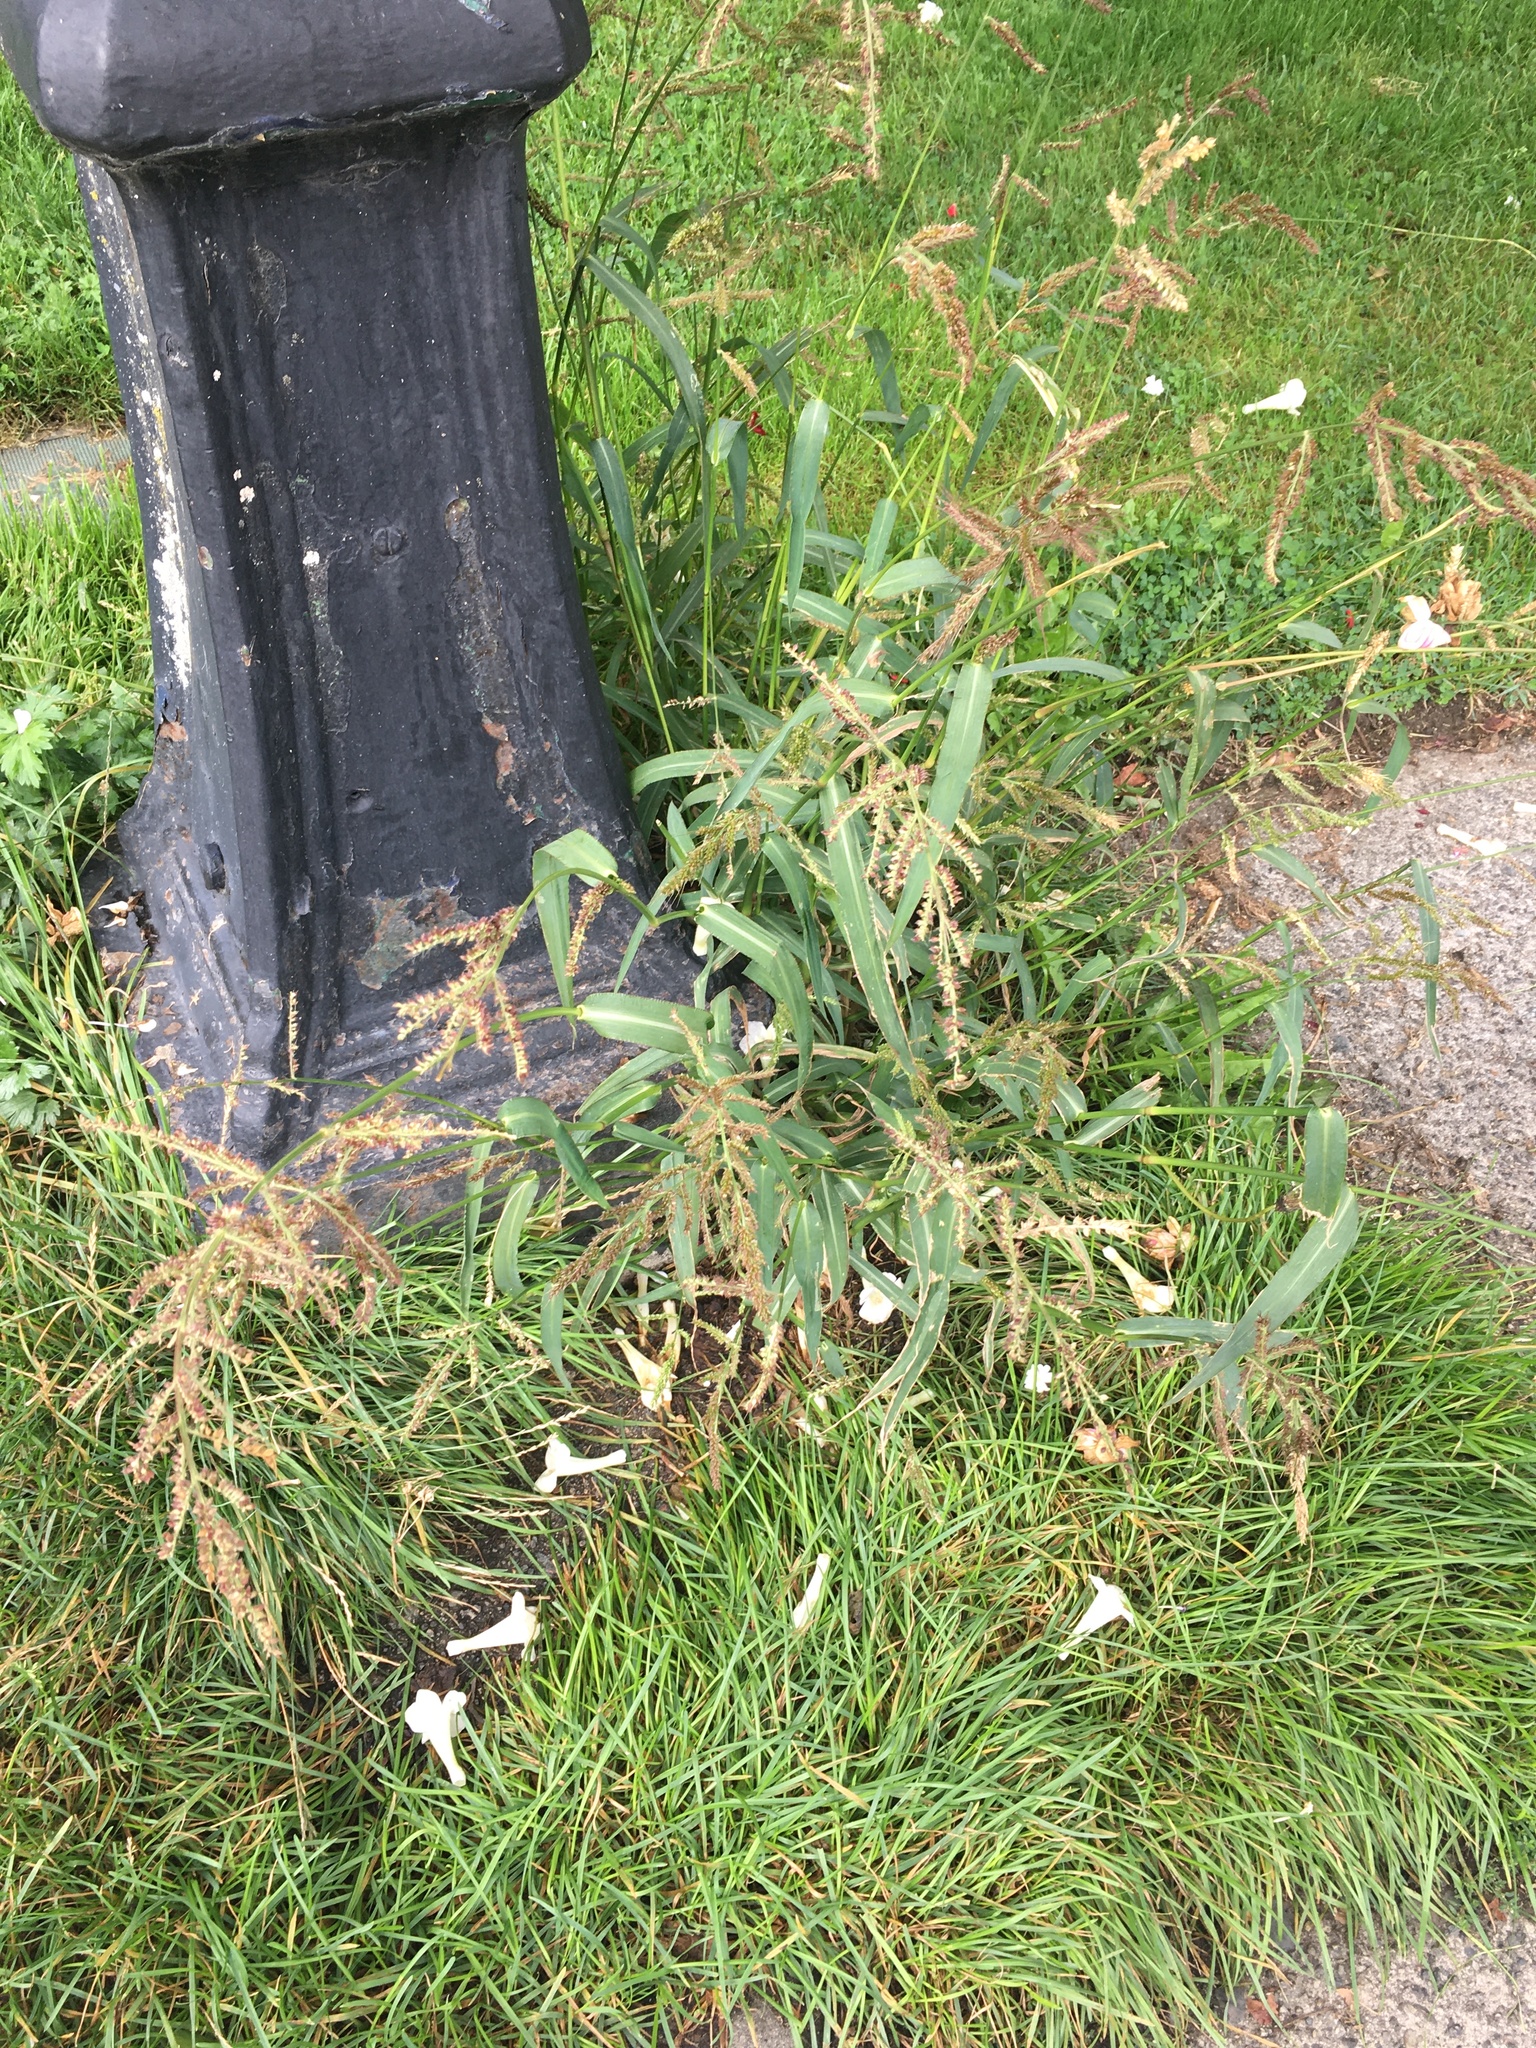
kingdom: Plantae
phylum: Tracheophyta
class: Liliopsida
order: Poales
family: Poaceae
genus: Echinochloa
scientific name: Echinochloa crus-galli
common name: Cockspur
